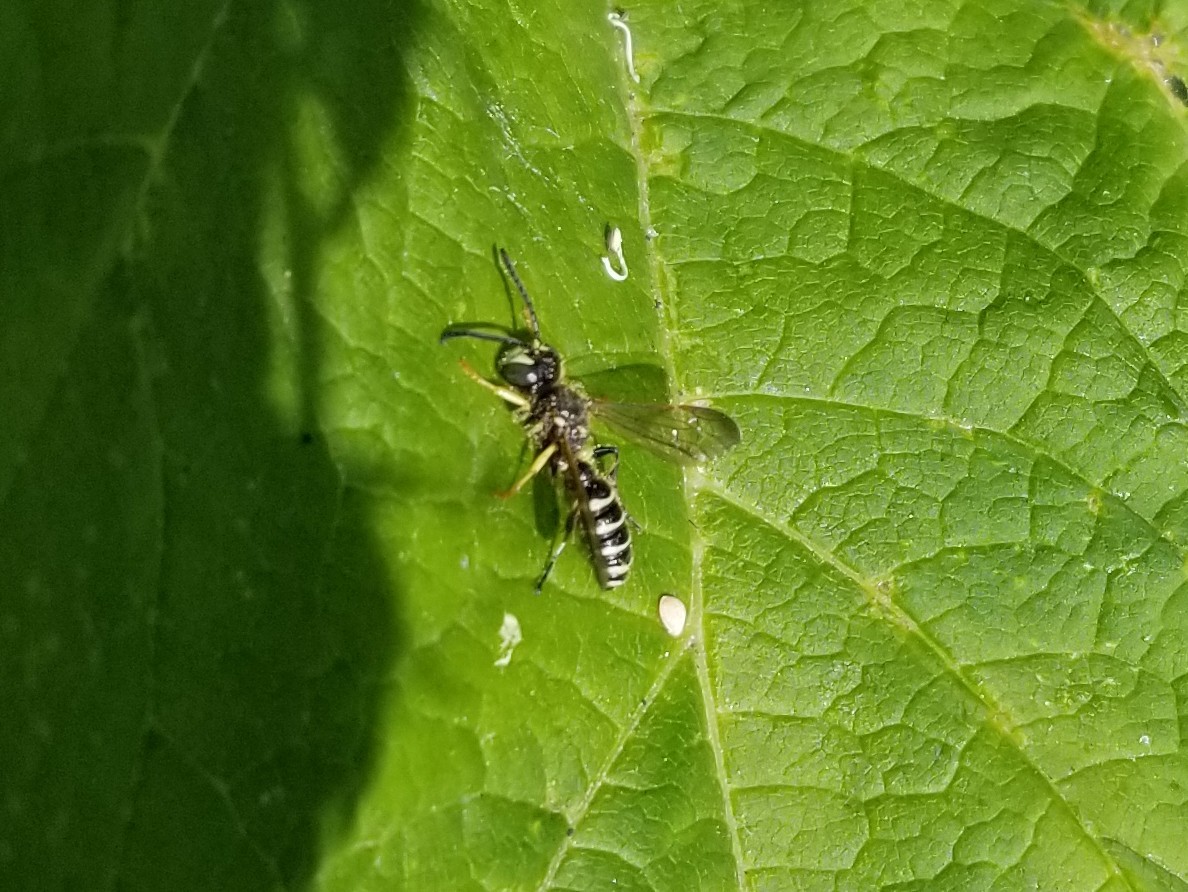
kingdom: Animalia
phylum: Arthropoda
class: Insecta
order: Hymenoptera
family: Crabronidae
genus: Cerceris
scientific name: Cerceris nigrescens
